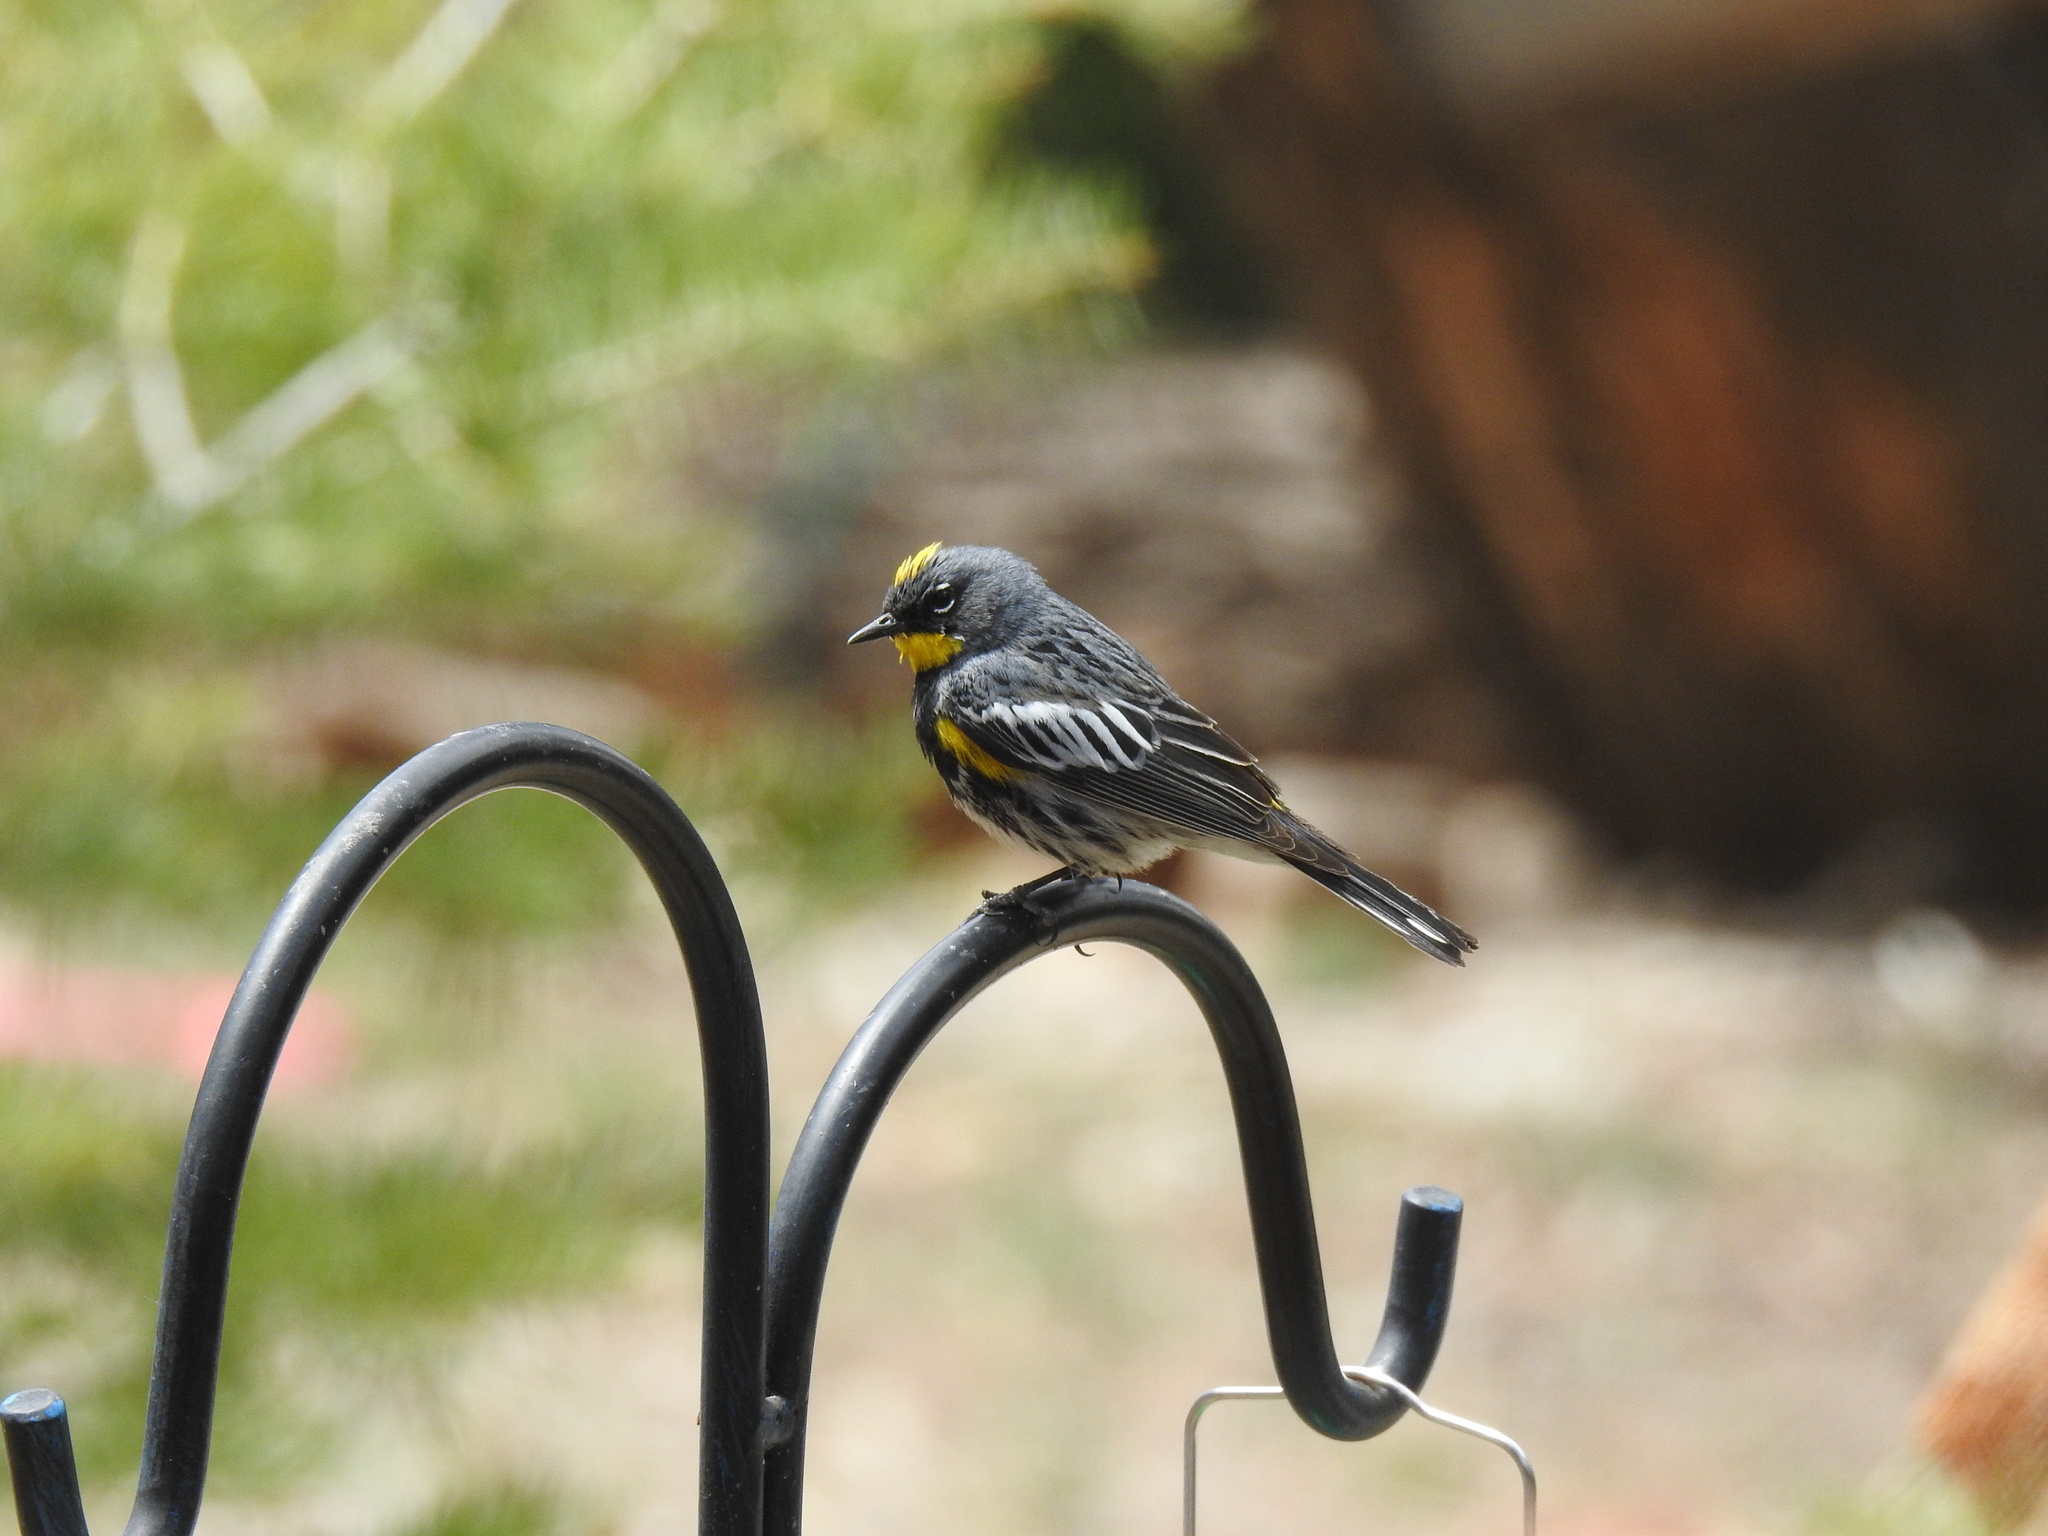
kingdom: Animalia
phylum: Chordata
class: Aves
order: Passeriformes
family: Parulidae
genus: Setophaga
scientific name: Setophaga coronata
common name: Myrtle warbler
